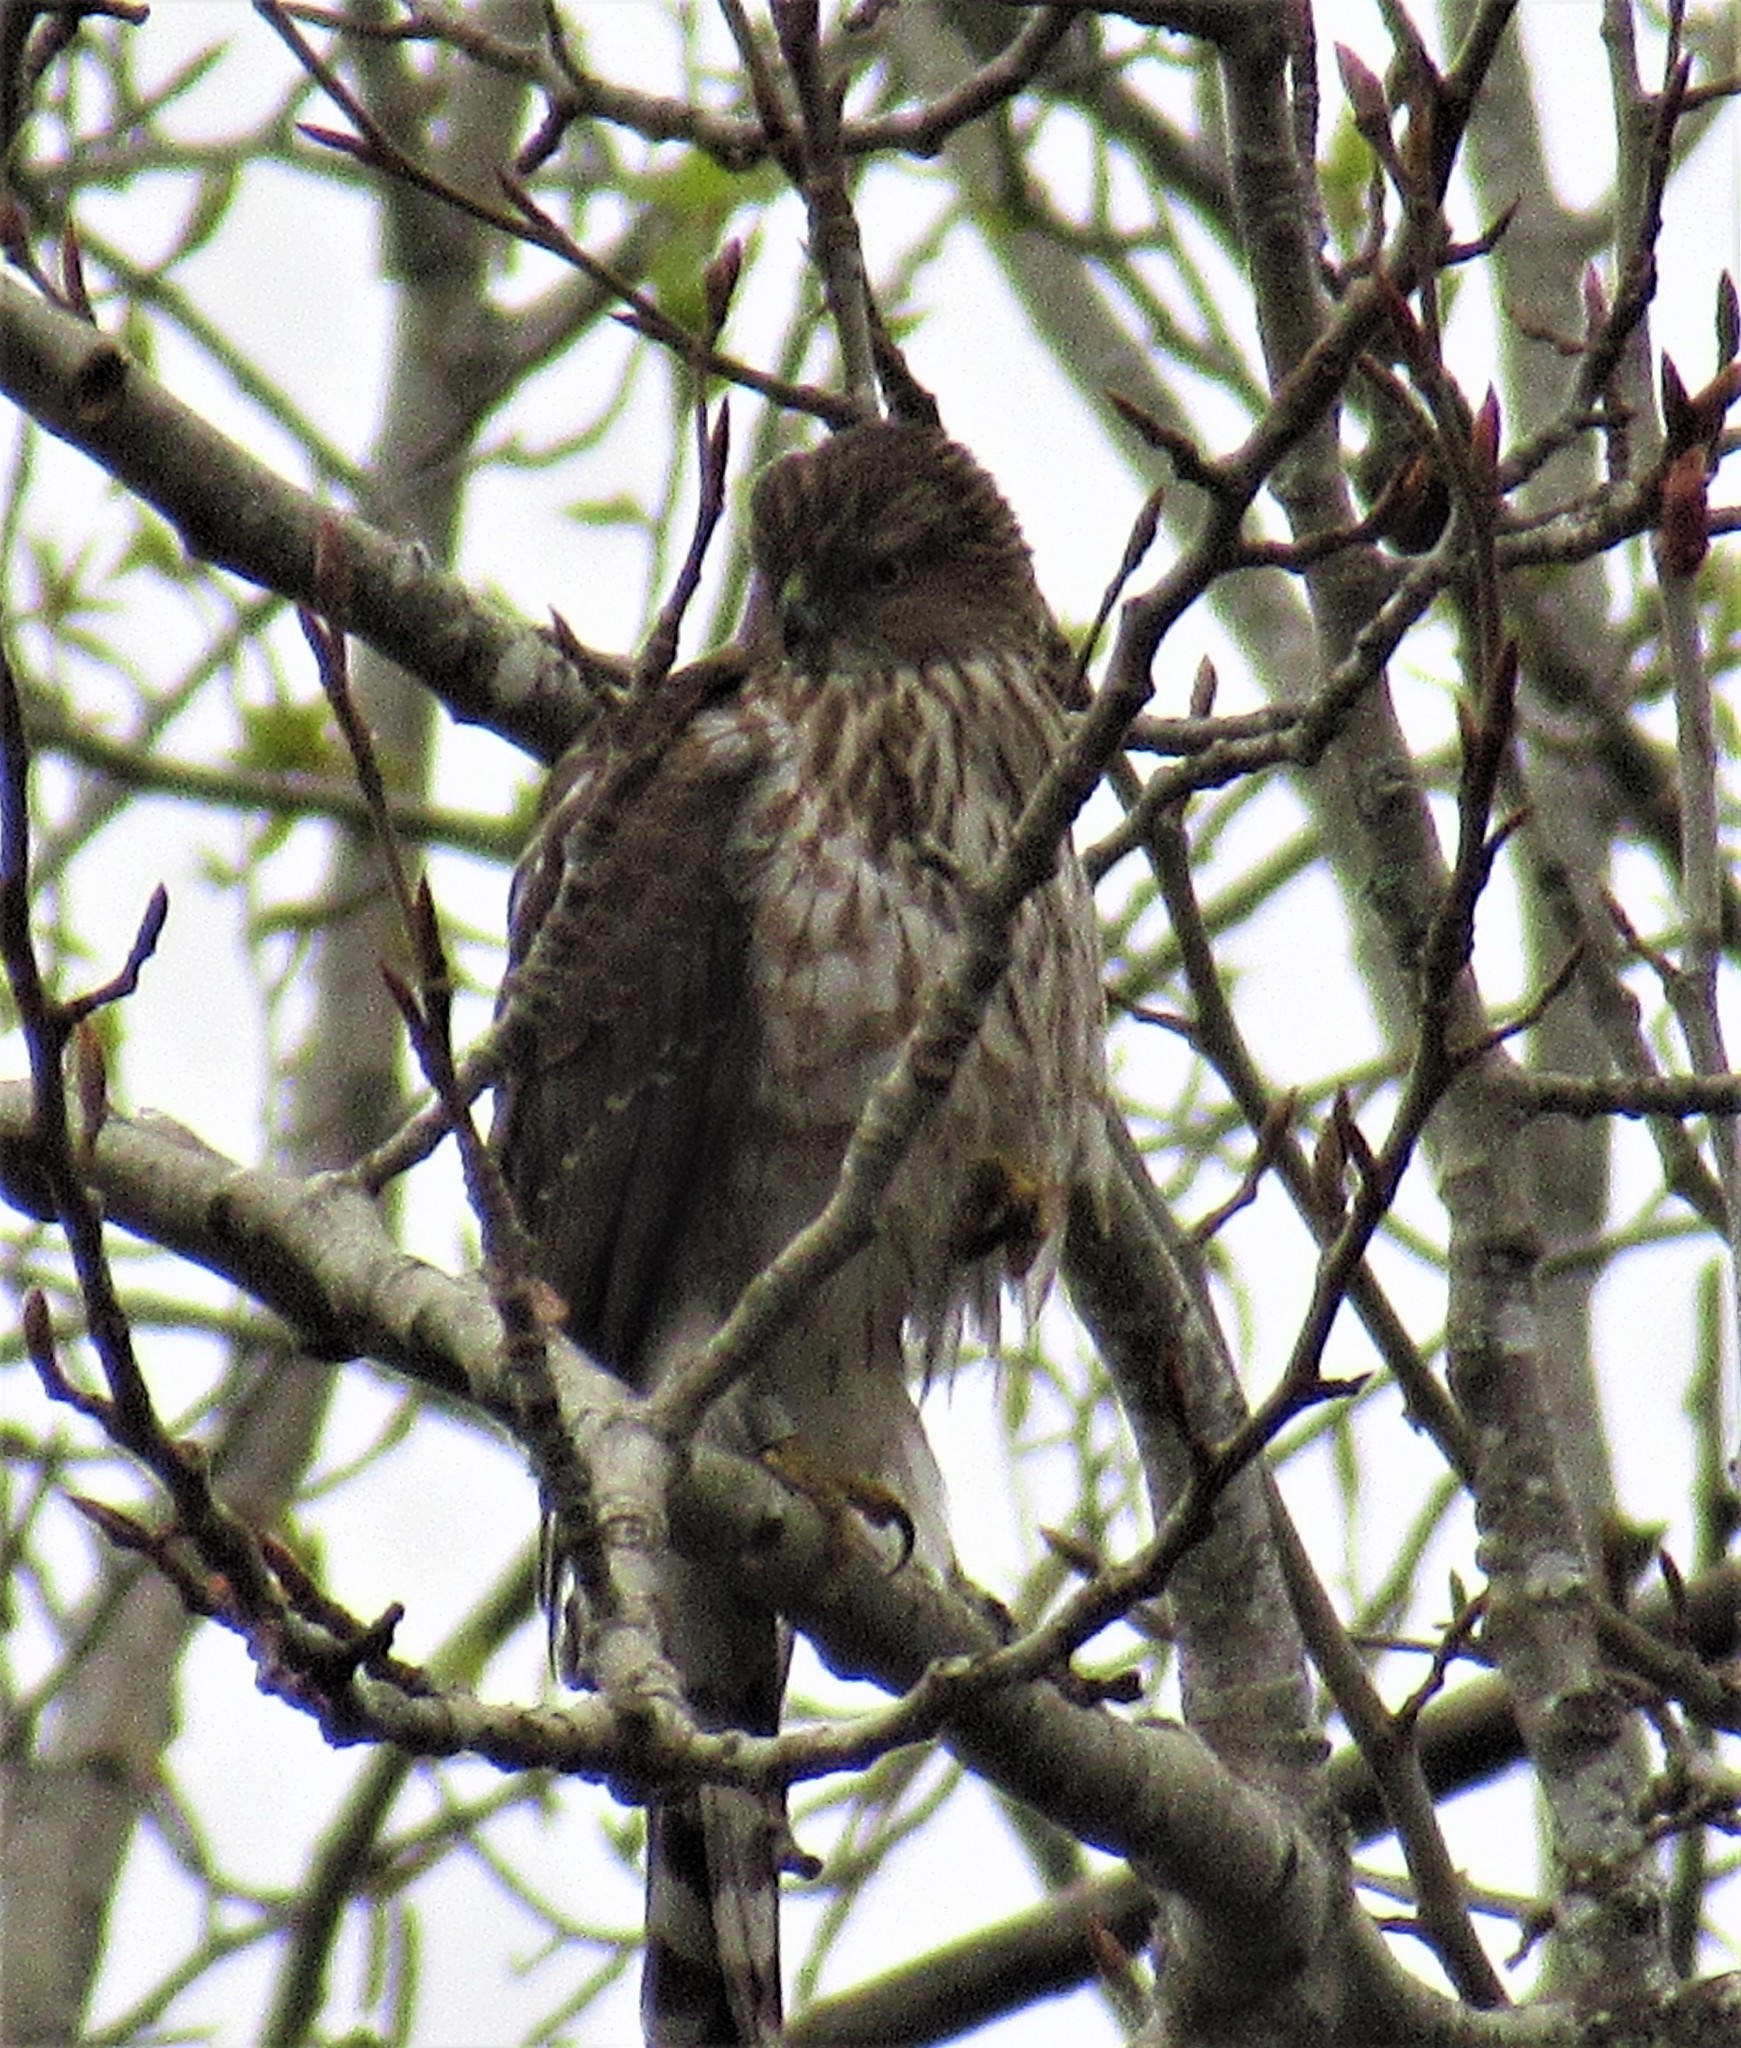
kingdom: Animalia
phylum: Chordata
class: Aves
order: Accipitriformes
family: Accipitridae
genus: Accipiter
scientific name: Accipiter cooperii
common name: Cooper's hawk
